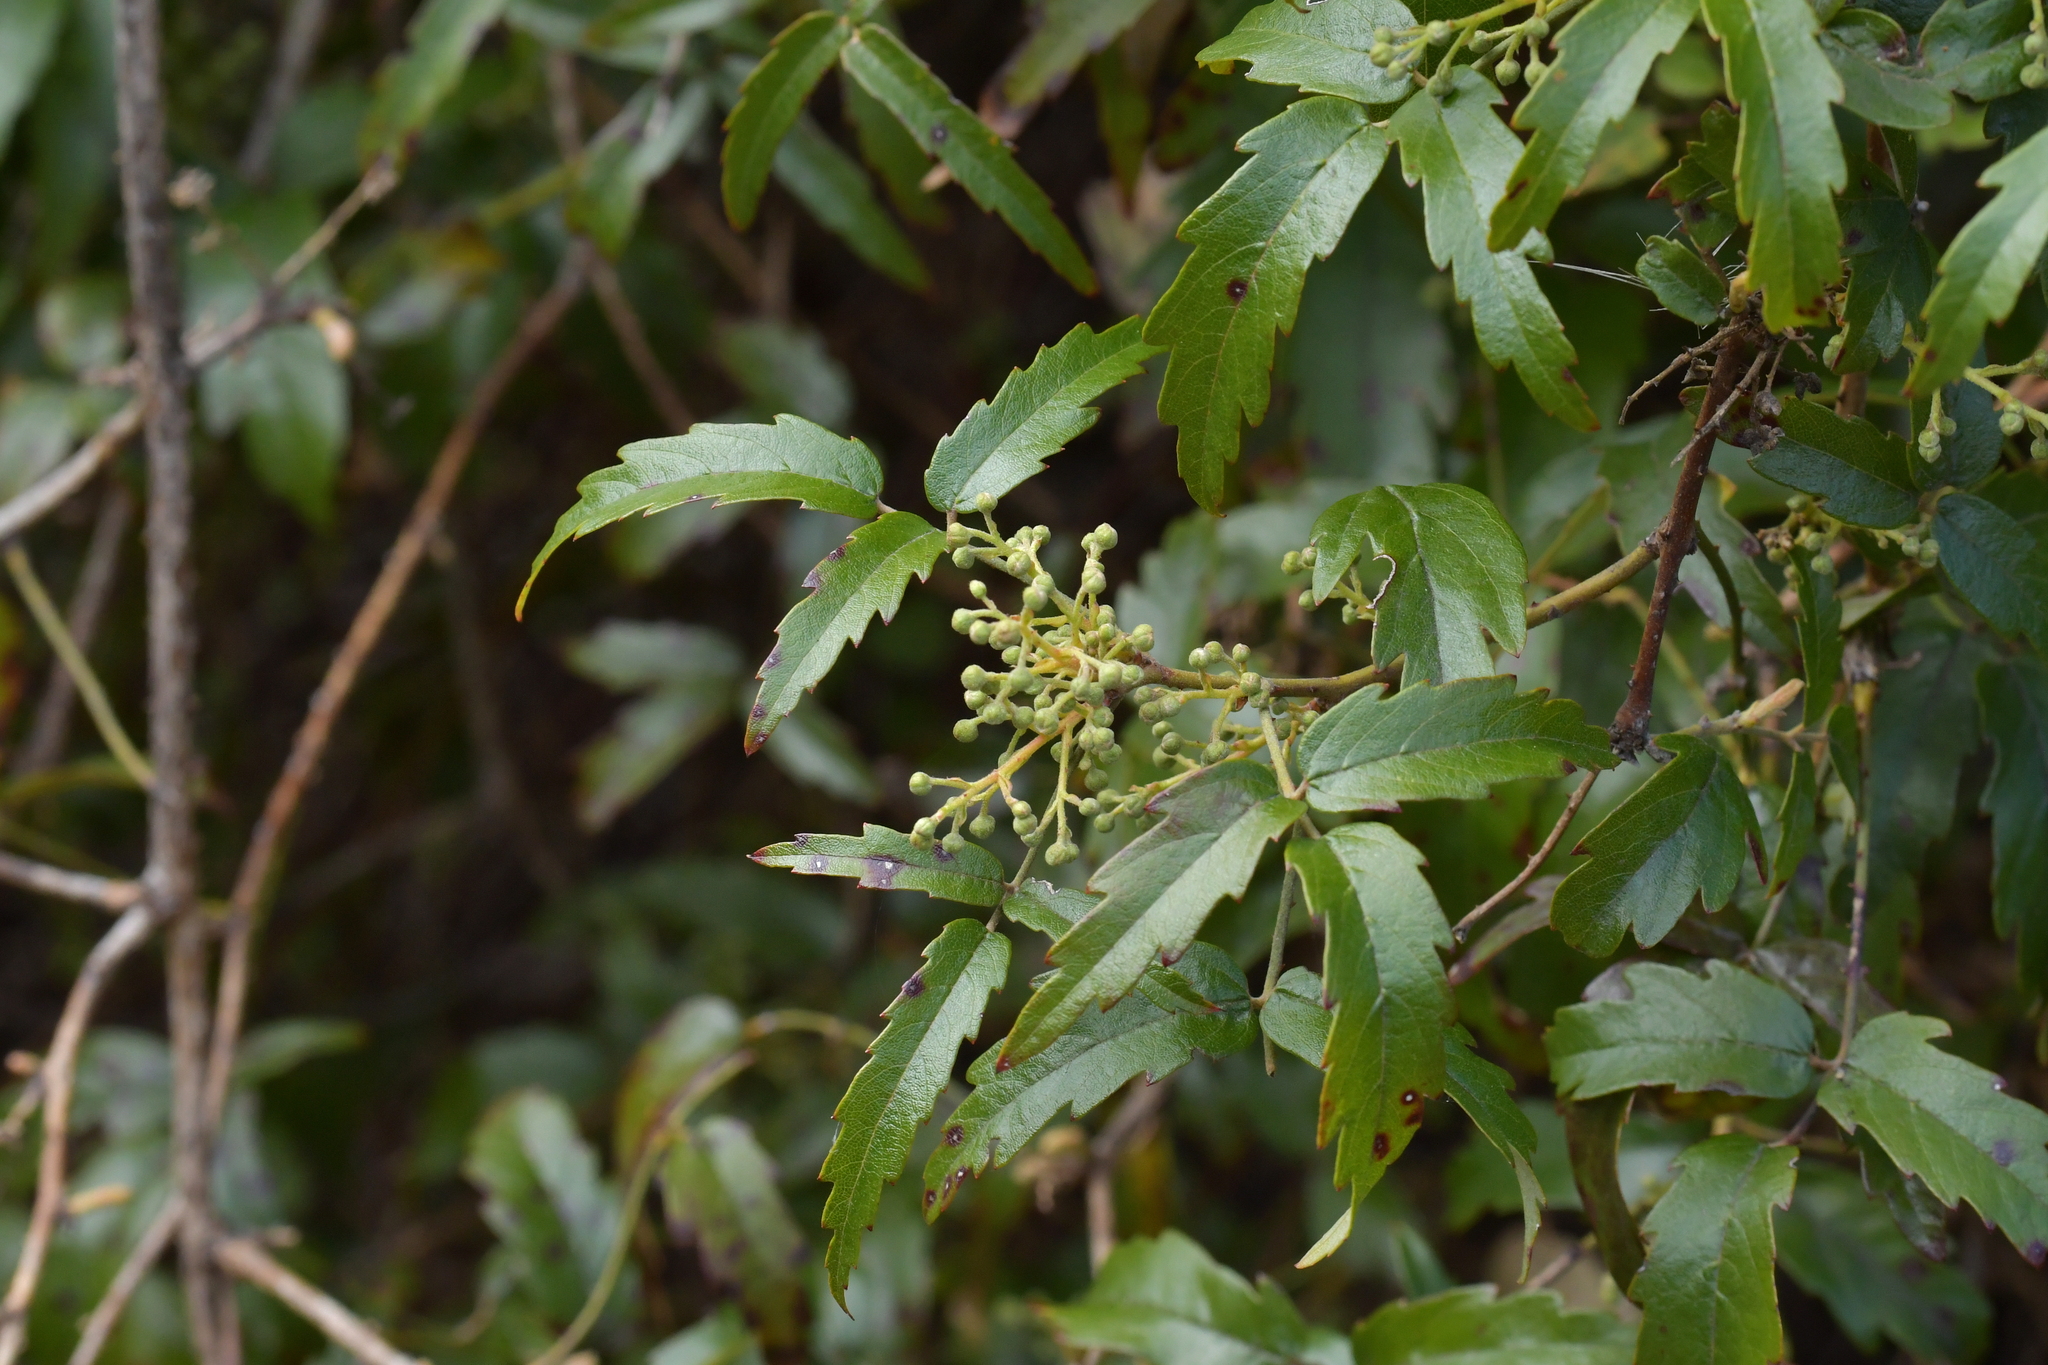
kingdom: Plantae
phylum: Tracheophyta
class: Magnoliopsida
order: Rosales
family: Rosaceae
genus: Rubus
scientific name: Rubus schmidelioides
